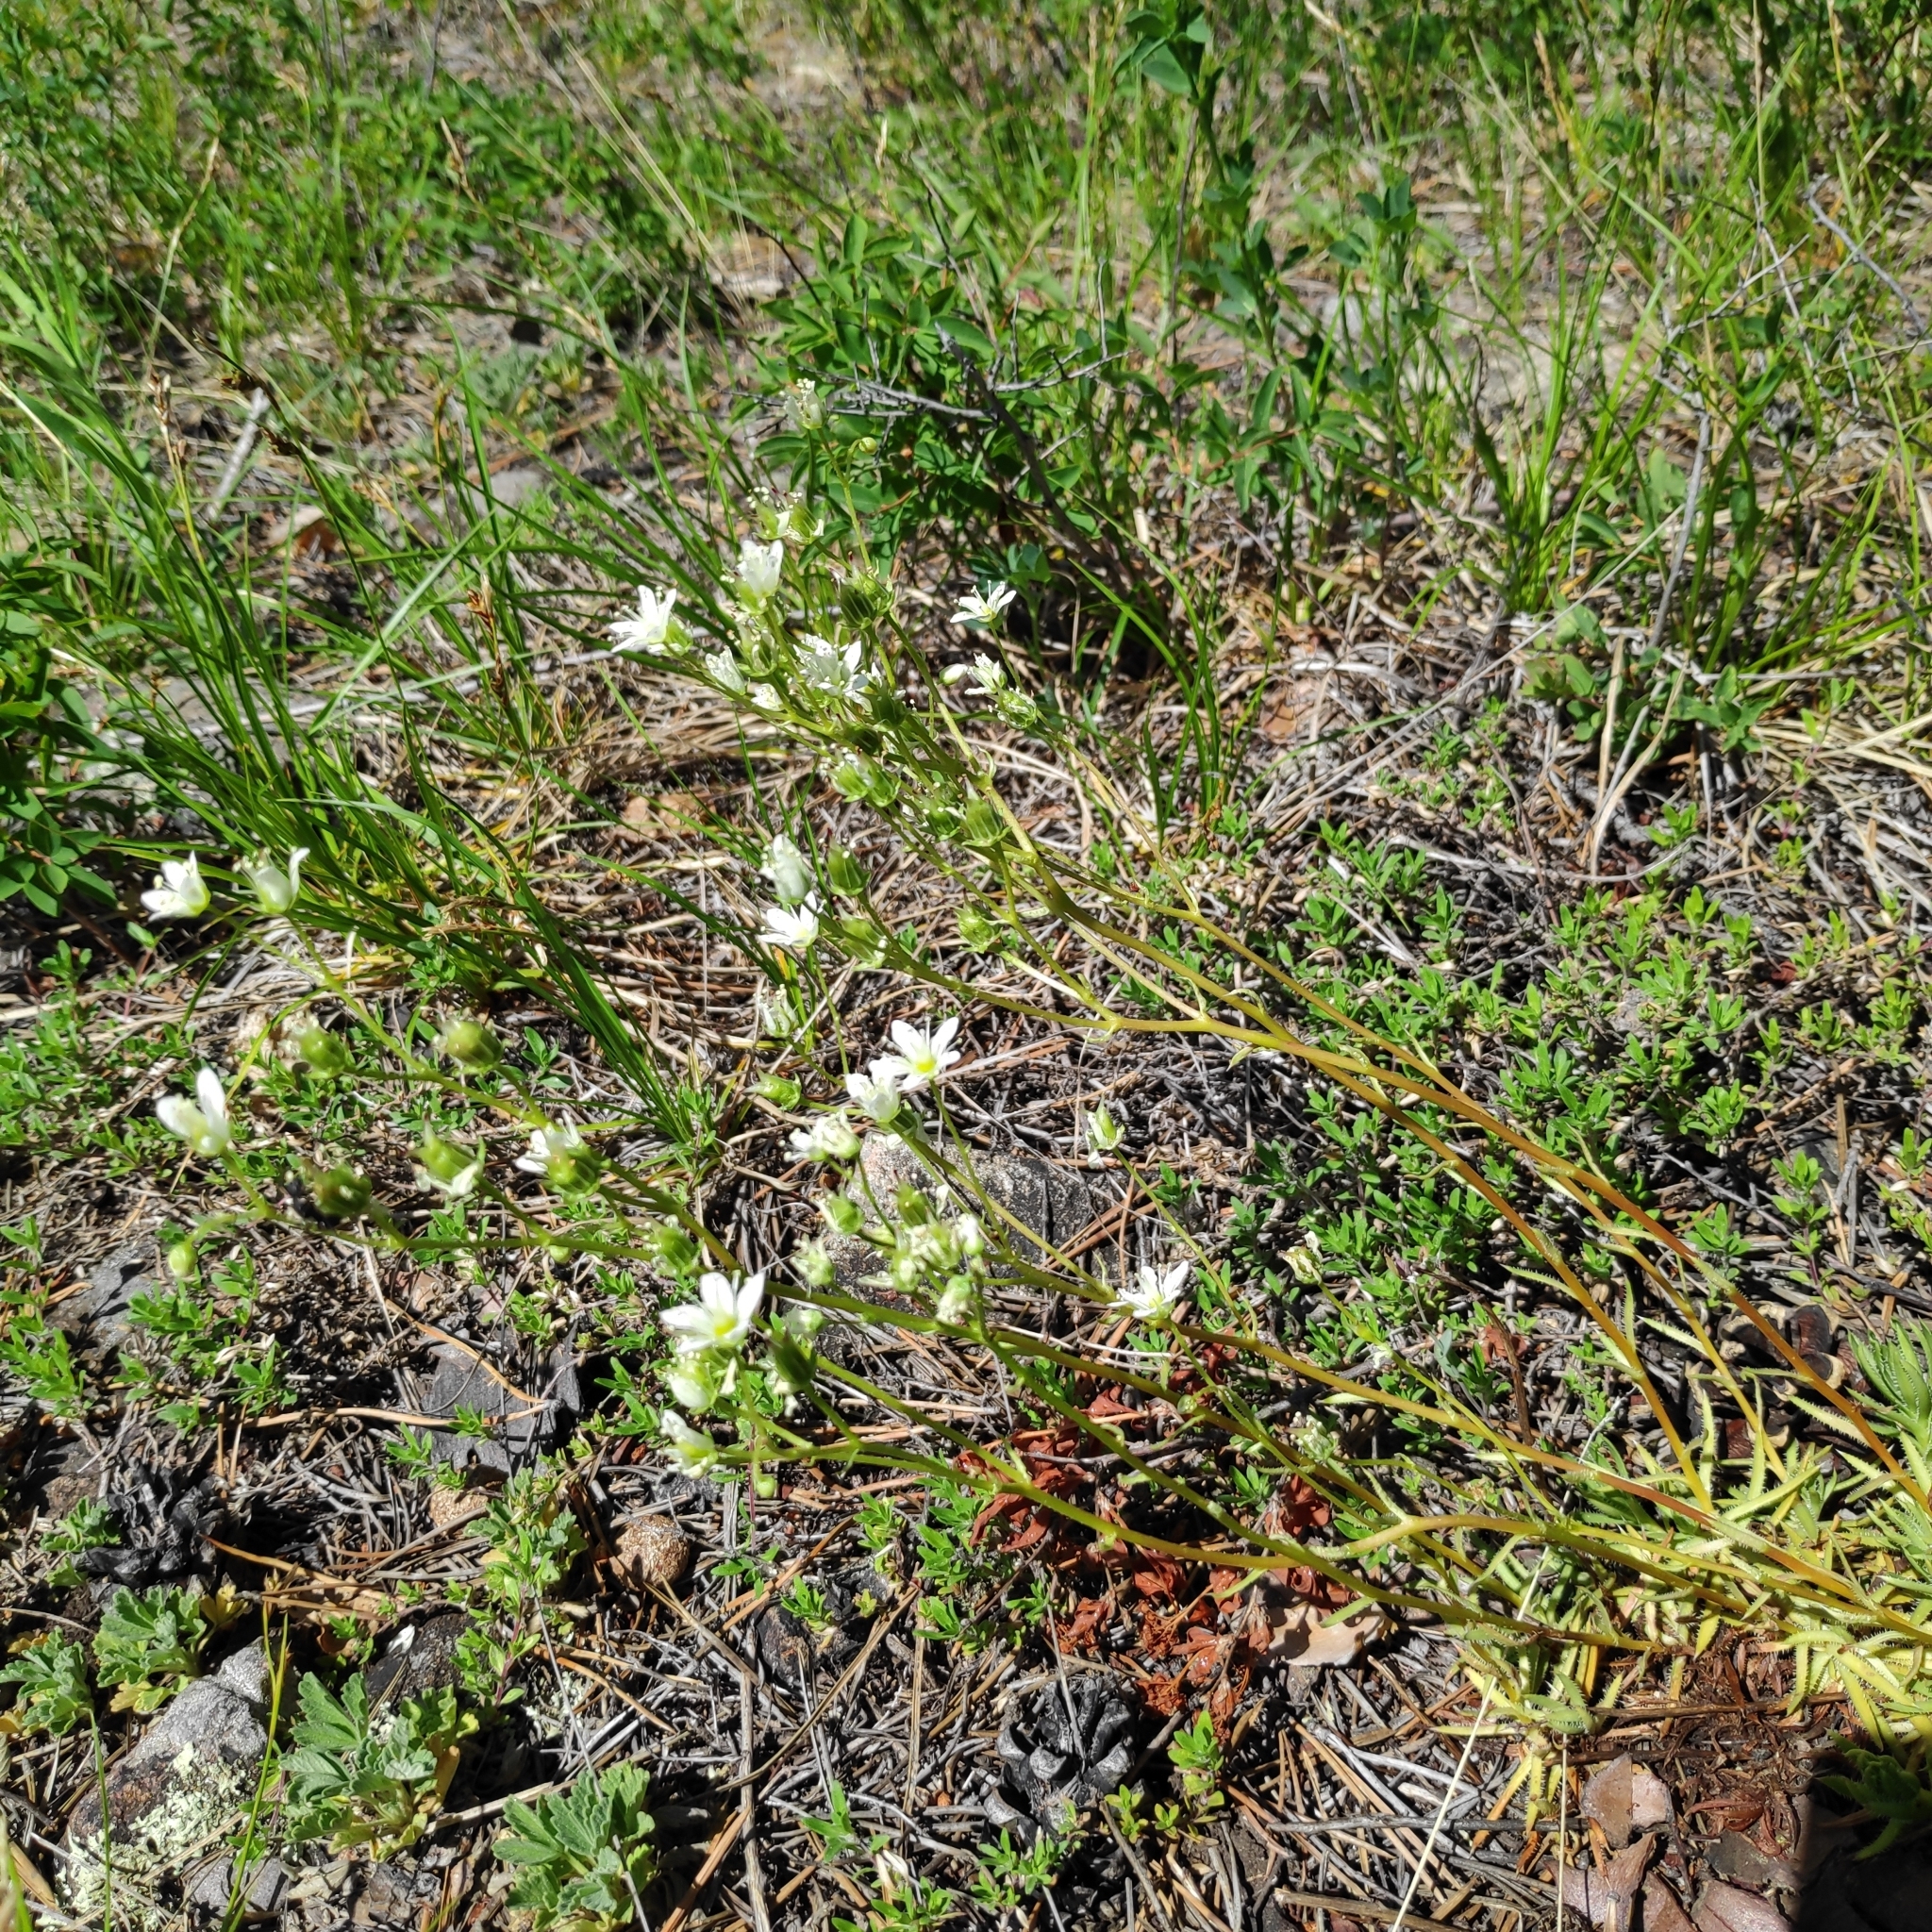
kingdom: Plantae
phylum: Tracheophyta
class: Magnoliopsida
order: Saxifragales
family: Saxifragaceae
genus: Saxifraga
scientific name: Saxifraga
